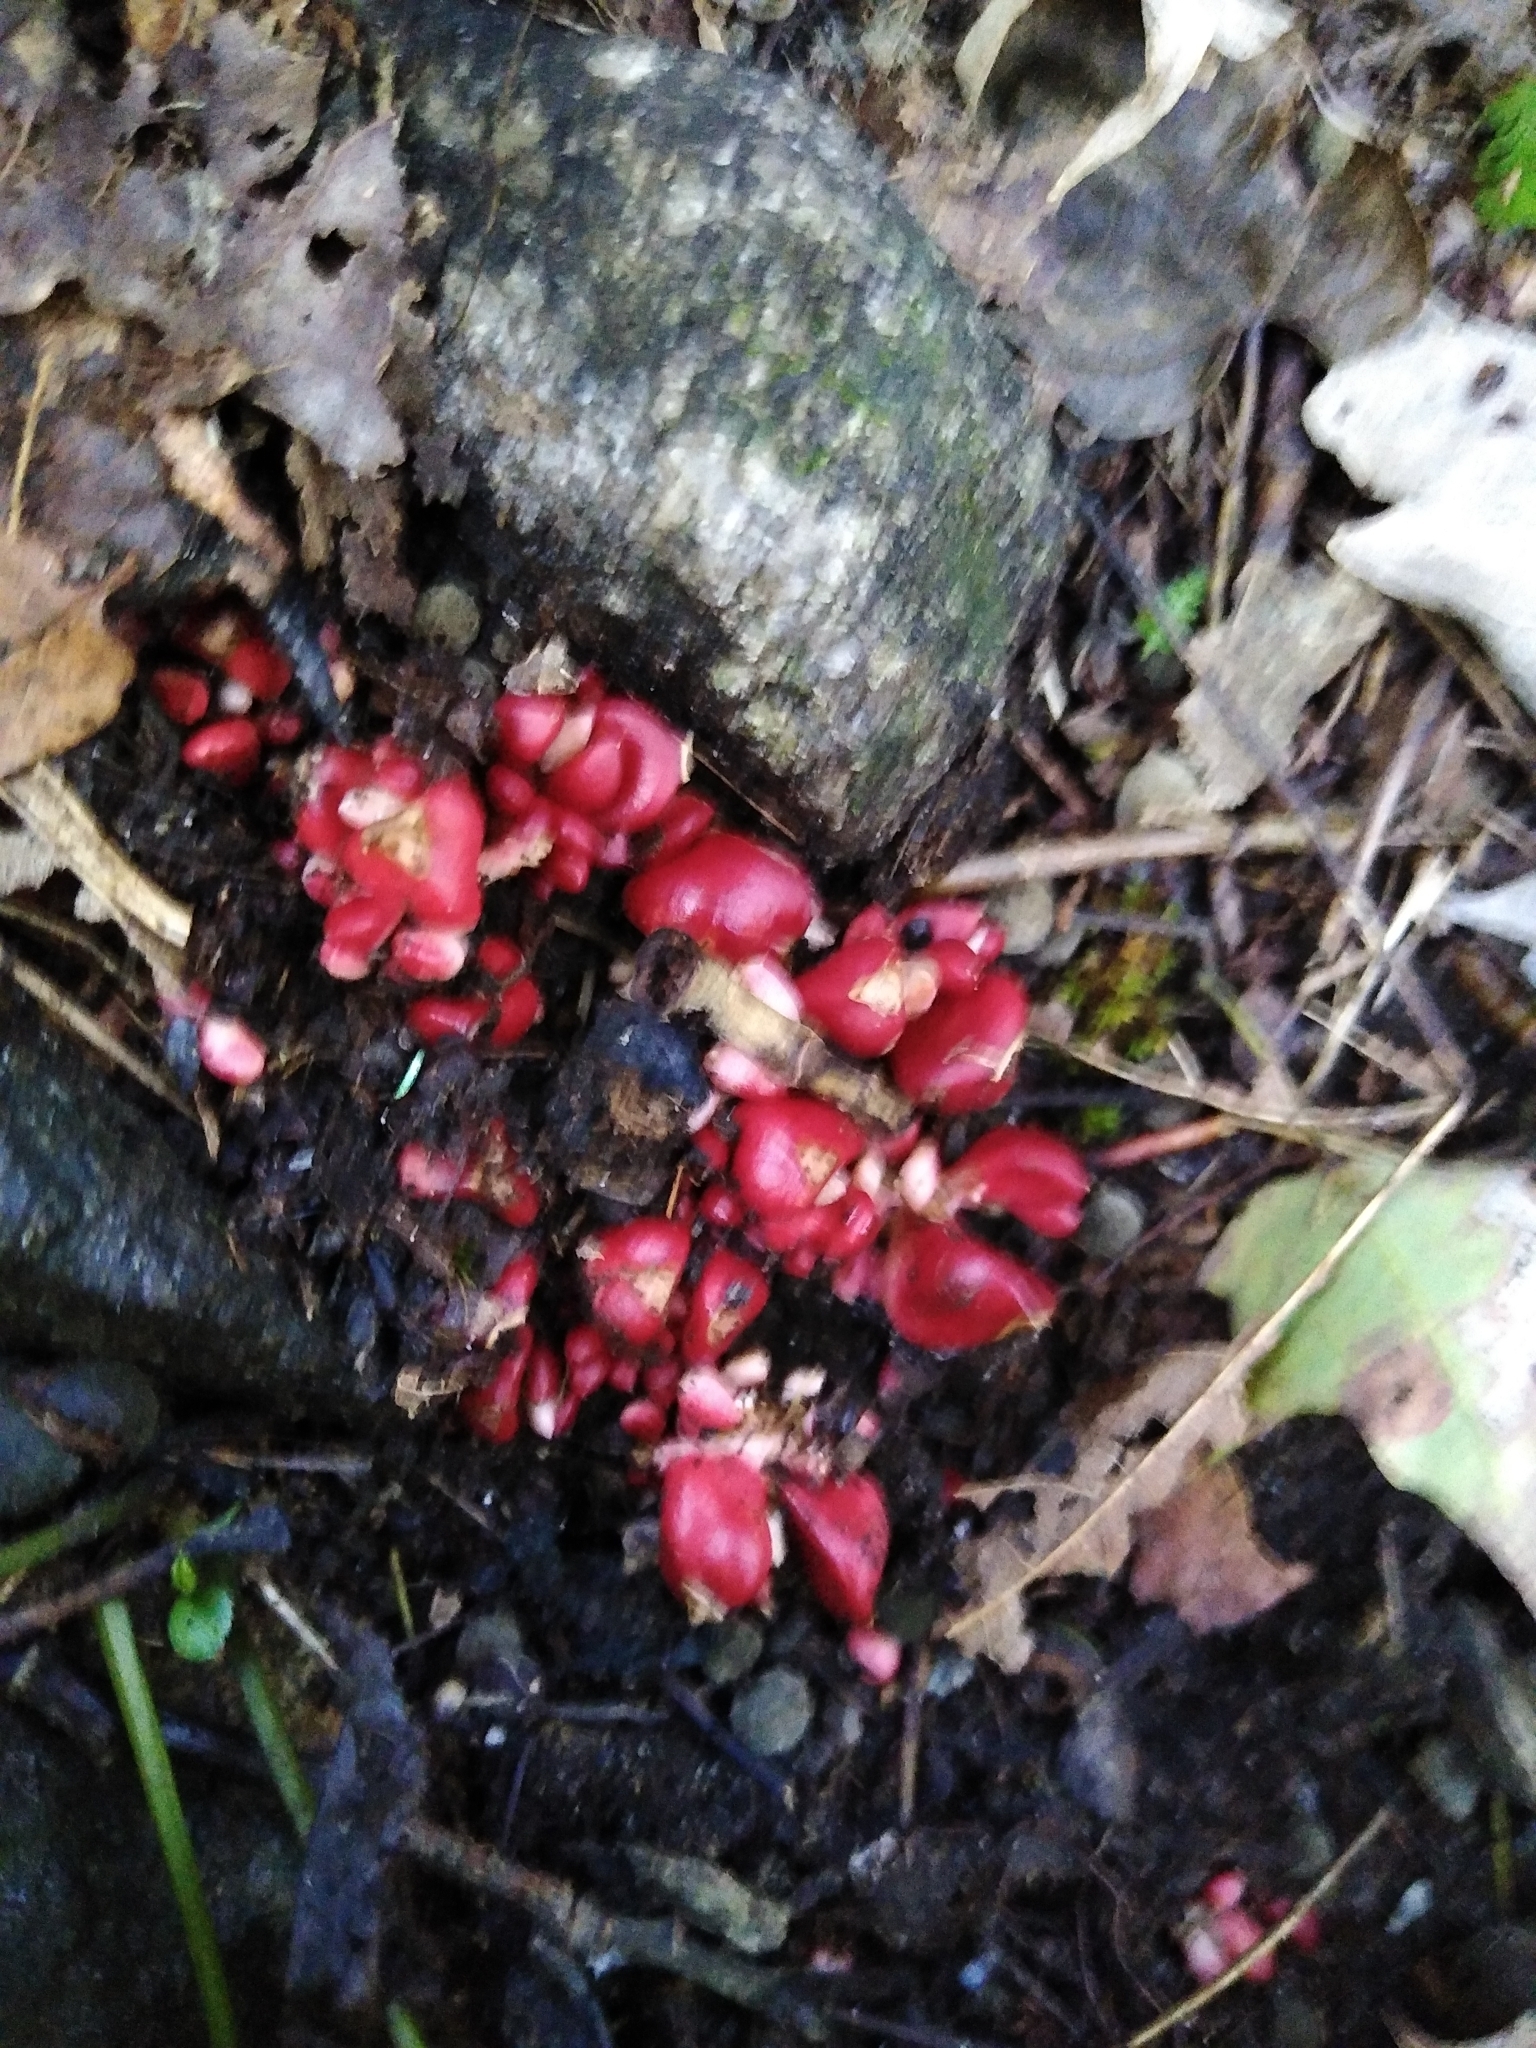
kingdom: Plantae
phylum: Tracheophyta
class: Magnoliopsida
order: Ranunculales
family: Papaveraceae
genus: Dicentra
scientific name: Dicentra cucullaria
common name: Dutchman's breeches
